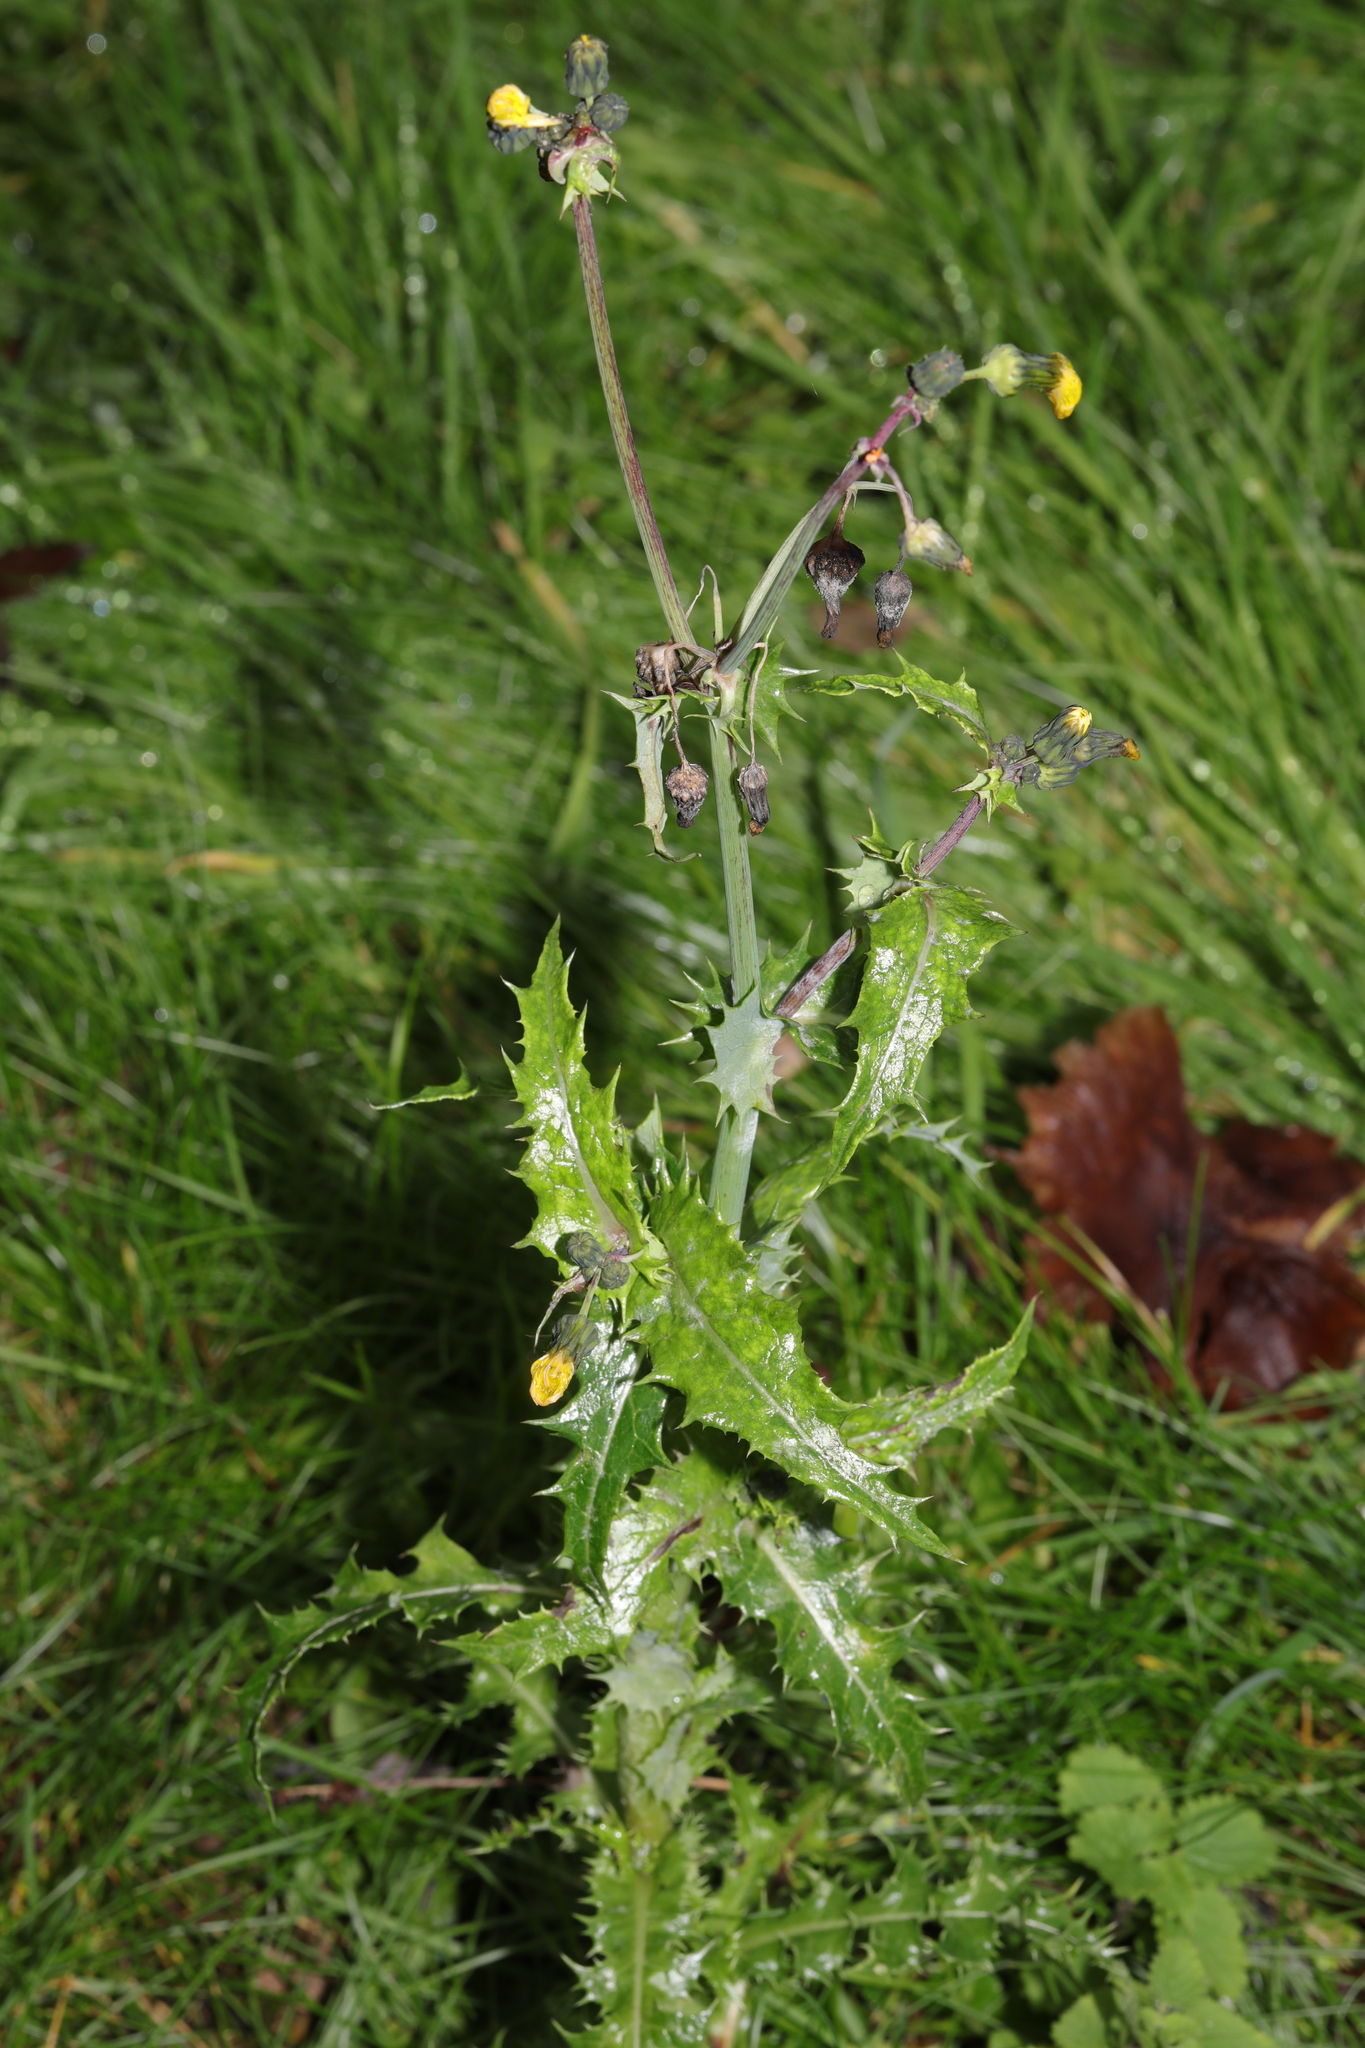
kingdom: Plantae
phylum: Tracheophyta
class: Magnoliopsida
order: Asterales
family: Asteraceae
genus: Sonchus
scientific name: Sonchus asper
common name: Prickly sow-thistle
